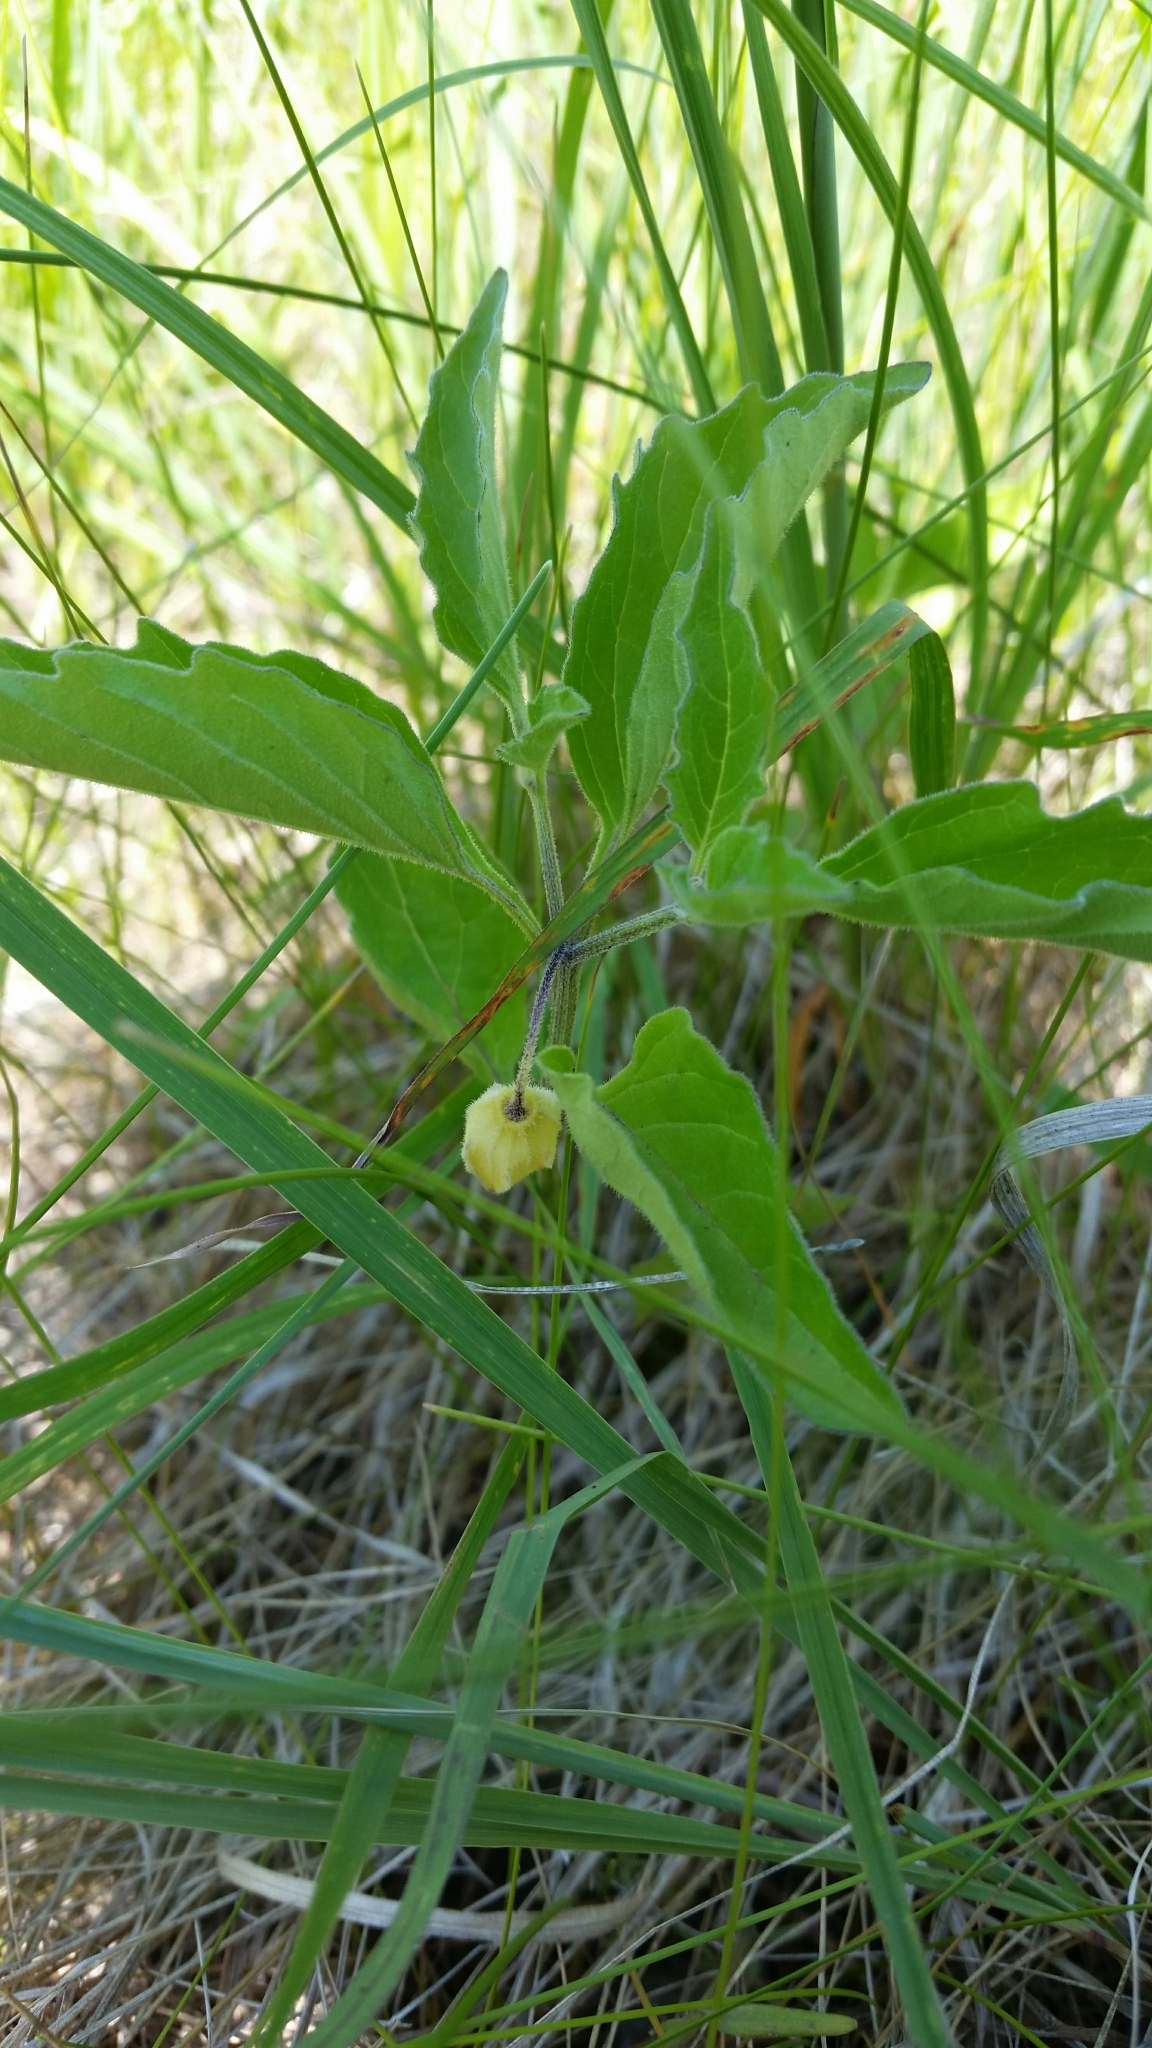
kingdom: Plantae
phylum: Tracheophyta
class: Magnoliopsida
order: Solanales
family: Solanaceae
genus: Physalis
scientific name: Physalis virginiana
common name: Virginia ground-cherry
